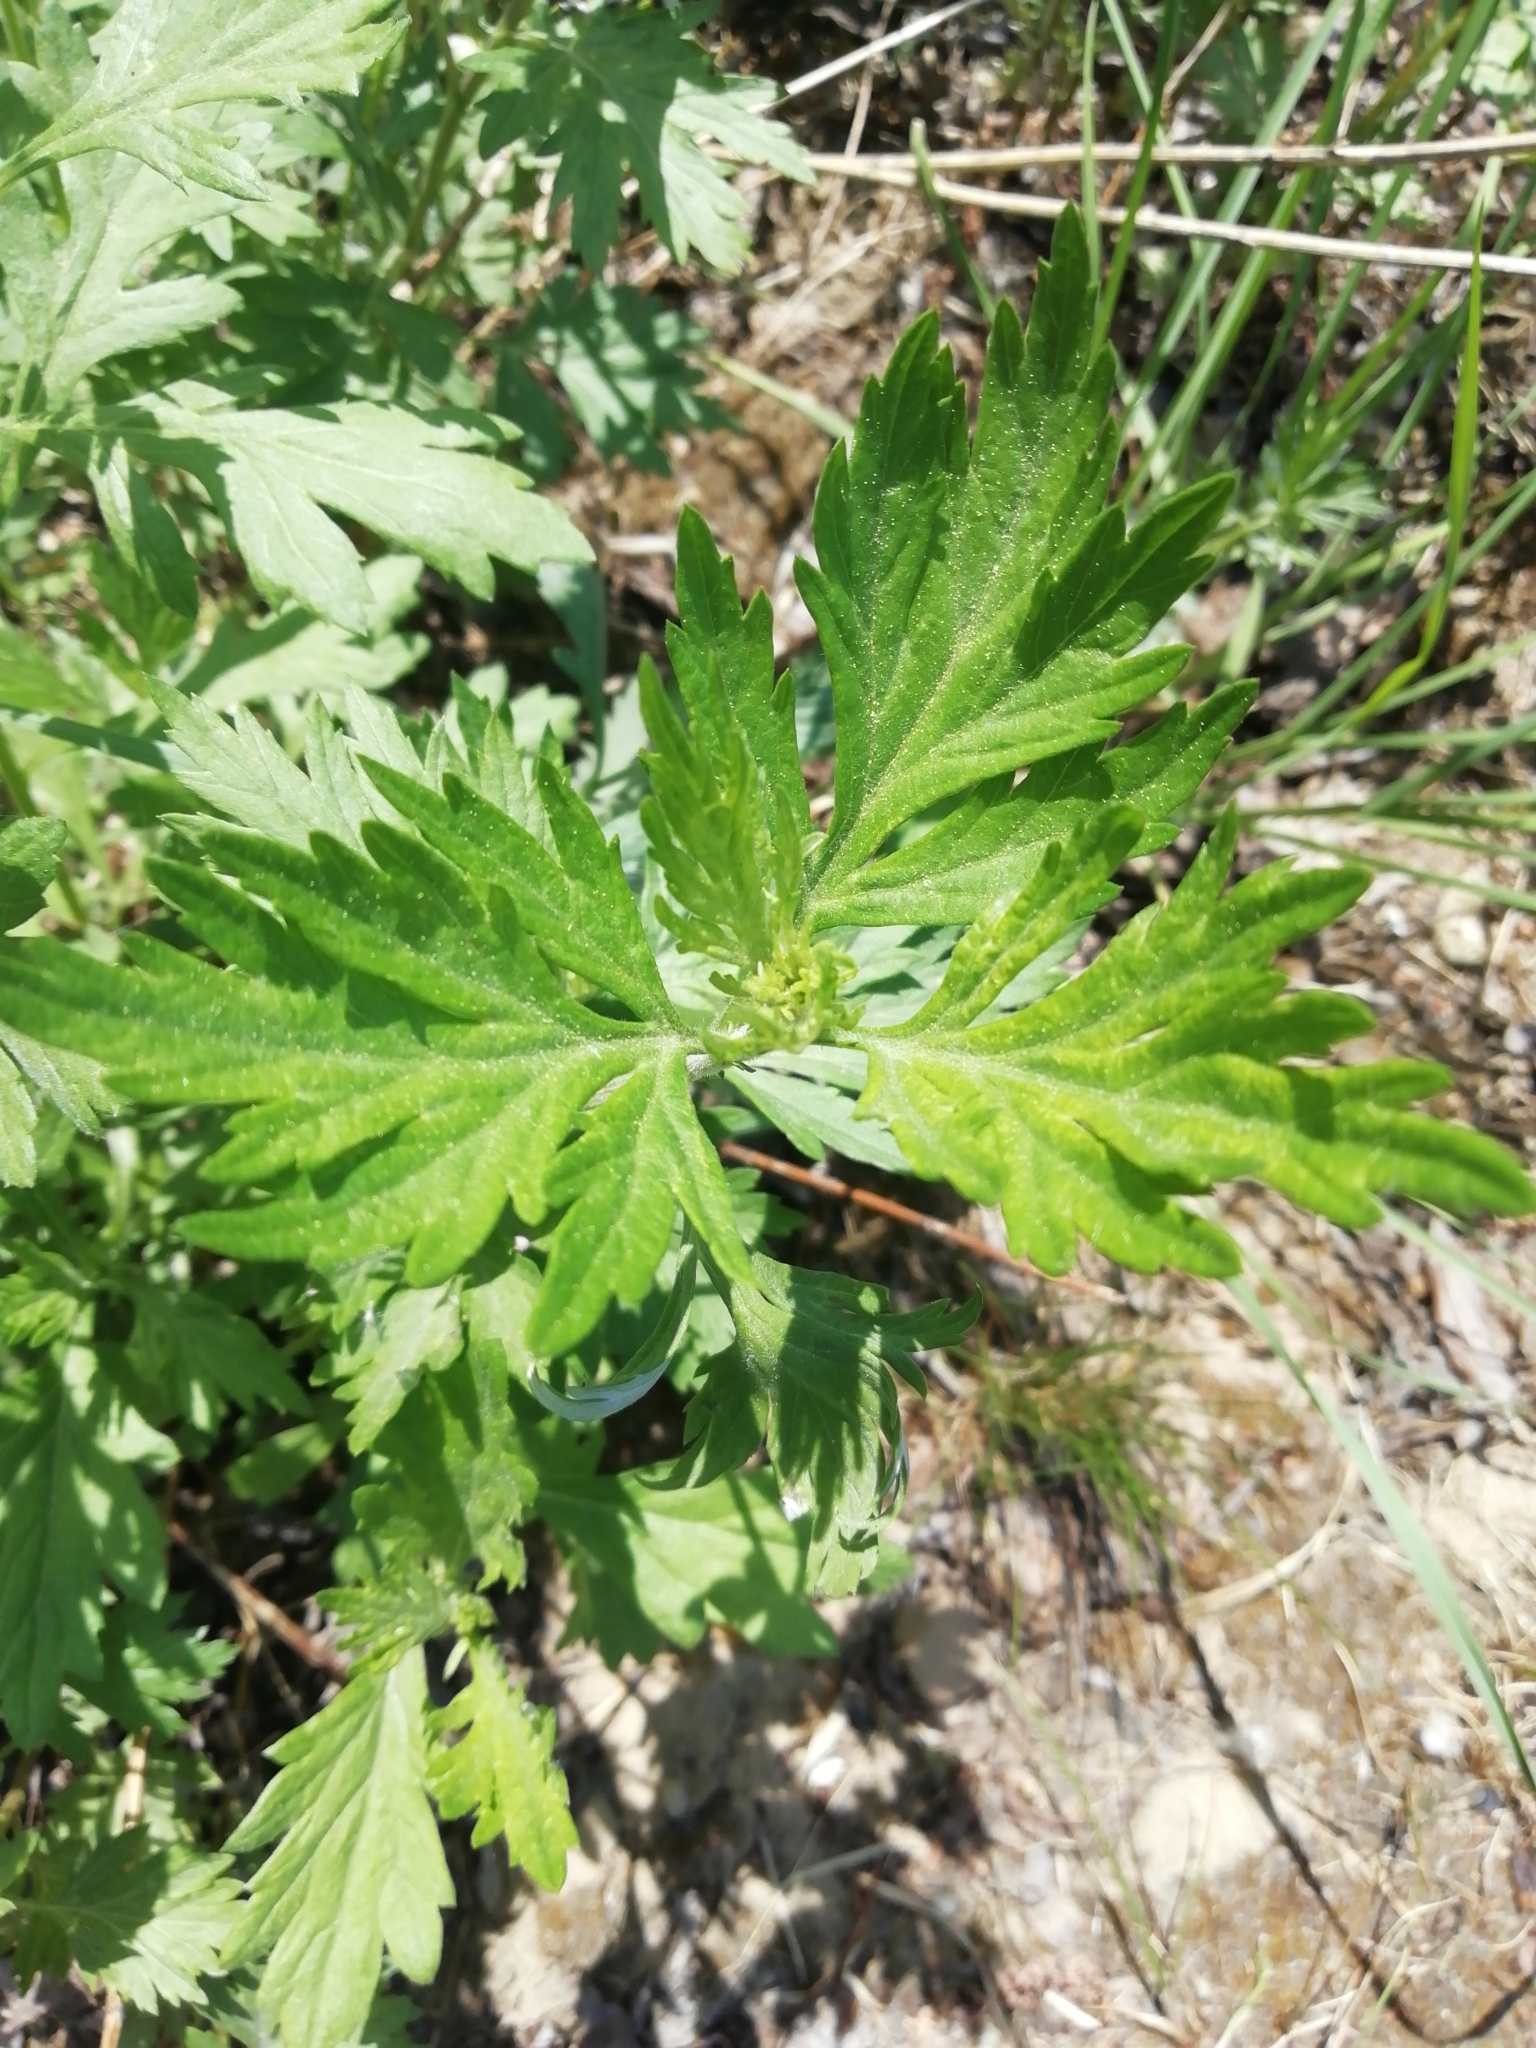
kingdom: Plantae
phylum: Tracheophyta
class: Magnoliopsida
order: Asterales
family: Asteraceae
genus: Artemisia
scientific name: Artemisia vulgaris
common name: Mugwort
